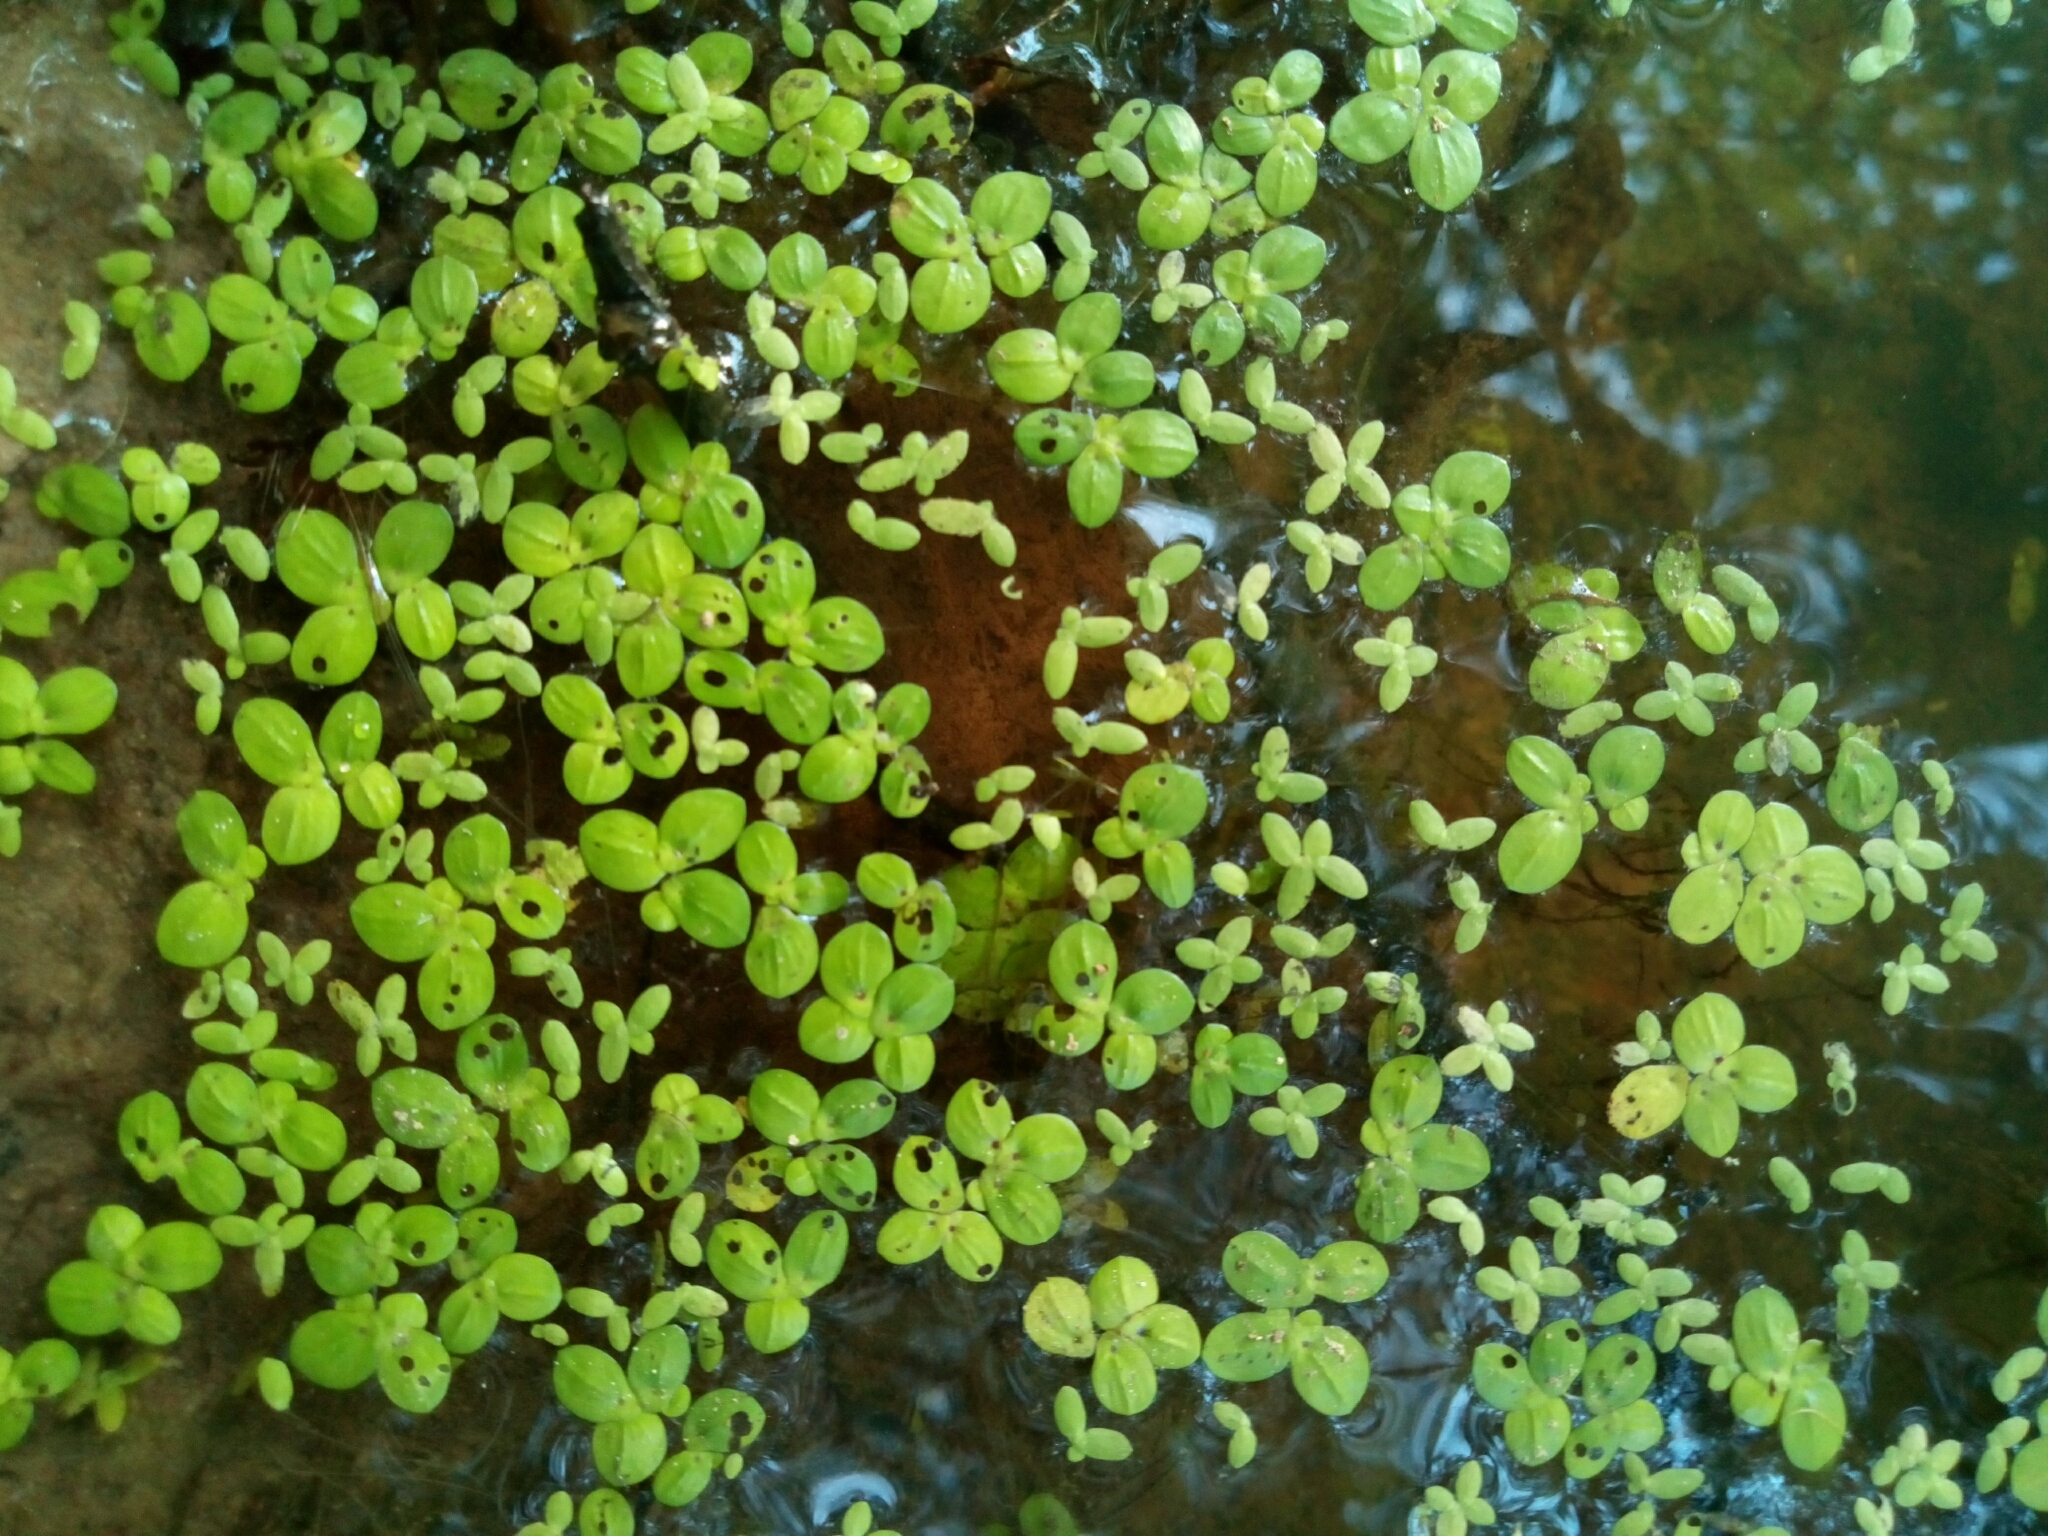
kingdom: Plantae
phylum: Tracheophyta
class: Liliopsida
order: Alismatales
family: Araceae
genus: Spirodela
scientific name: Spirodela polyrhiza
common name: Great duckweed
